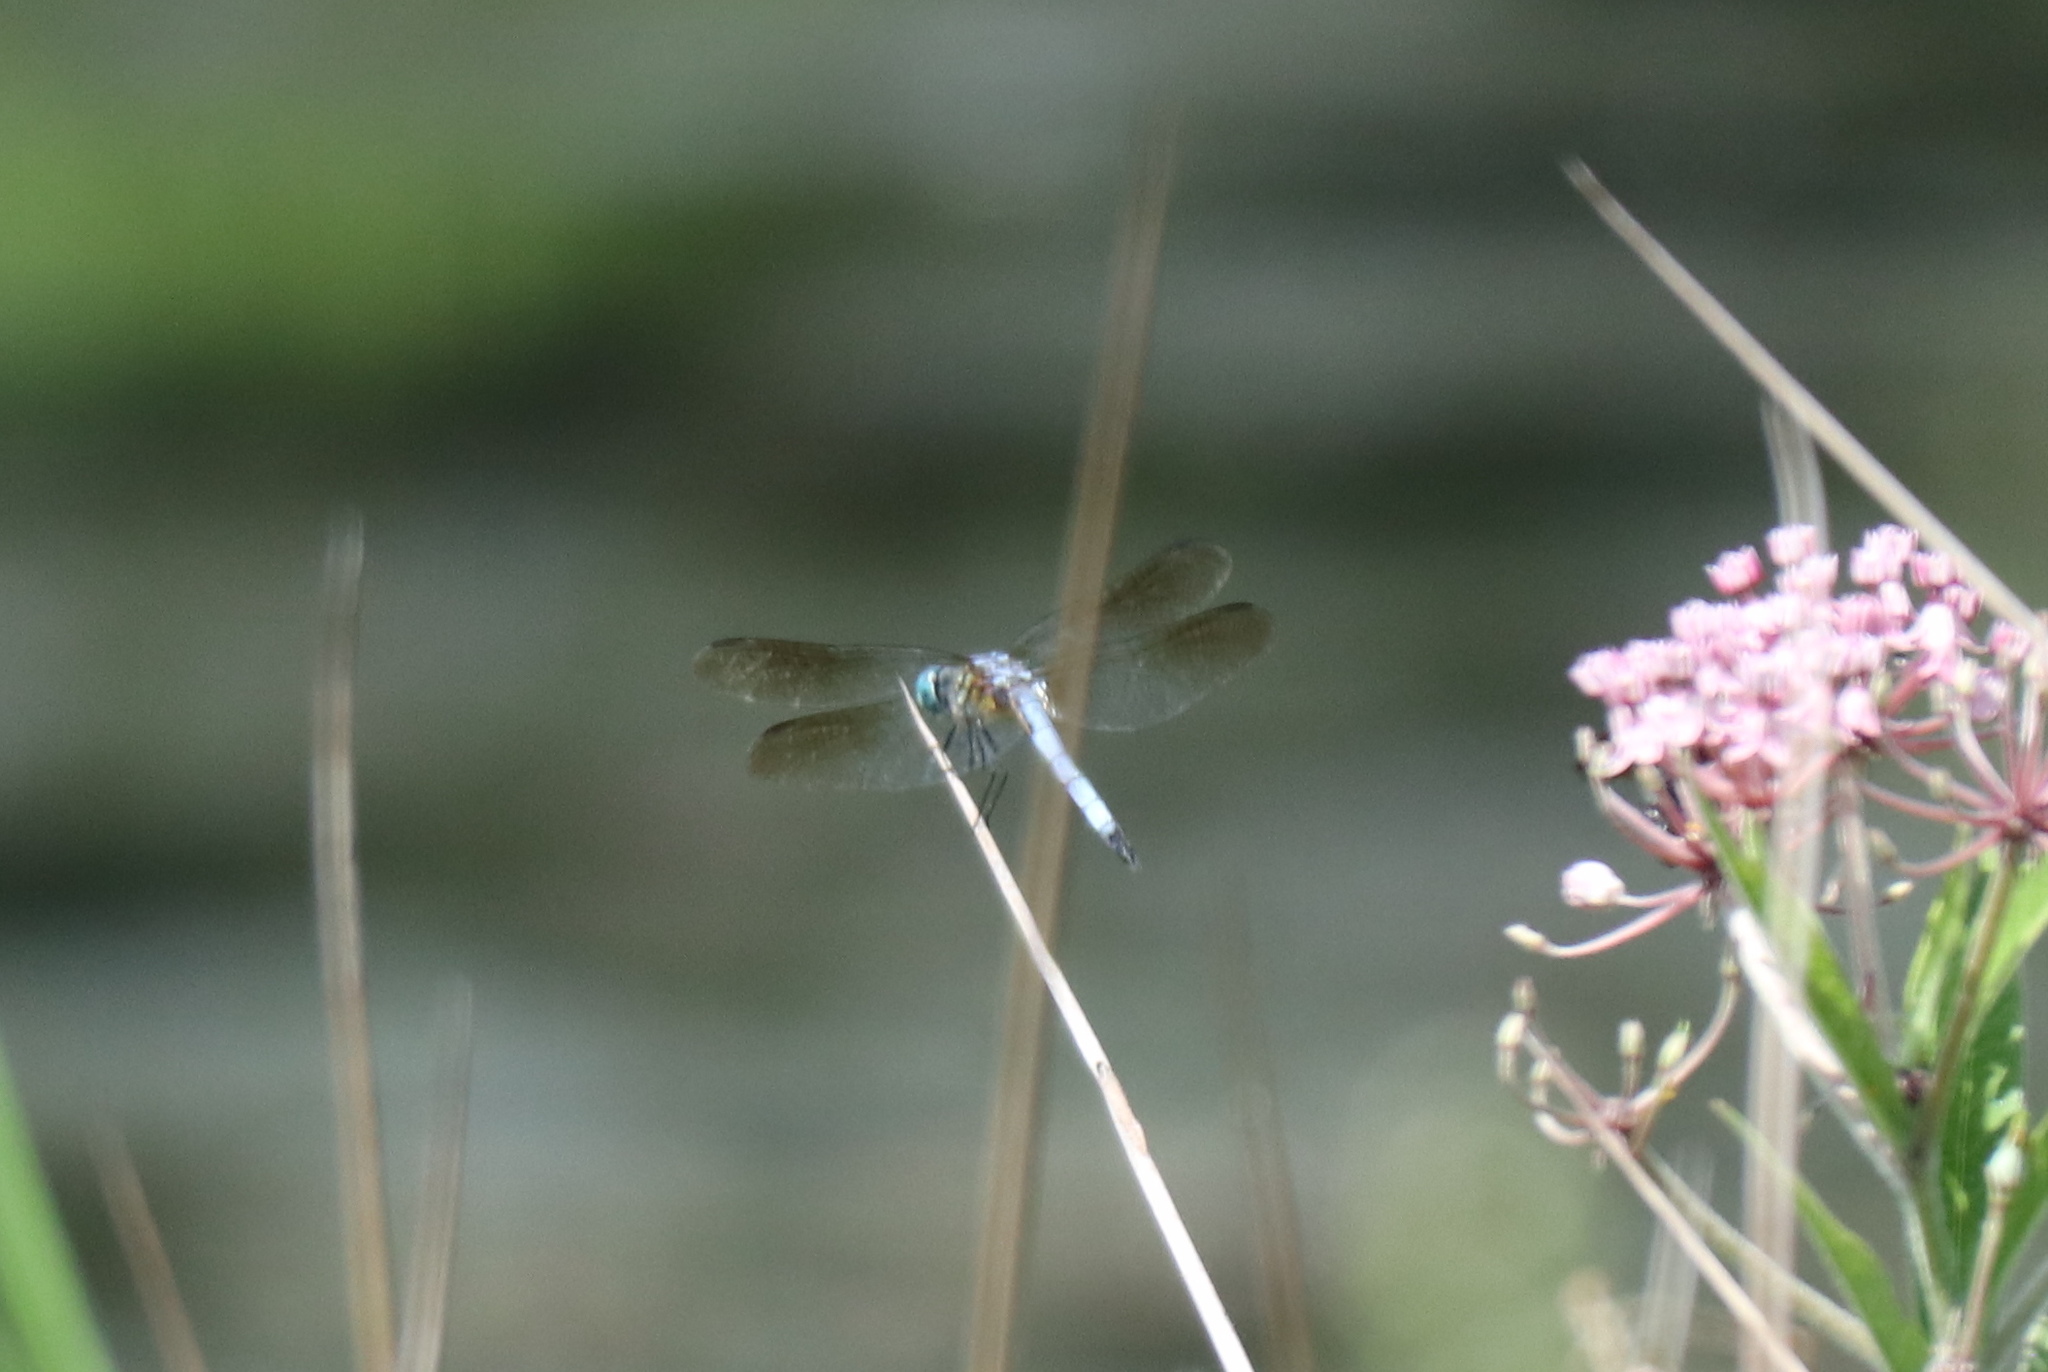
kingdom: Animalia
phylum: Arthropoda
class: Insecta
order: Odonata
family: Libellulidae
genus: Pachydiplax
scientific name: Pachydiplax longipennis
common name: Blue dasher
